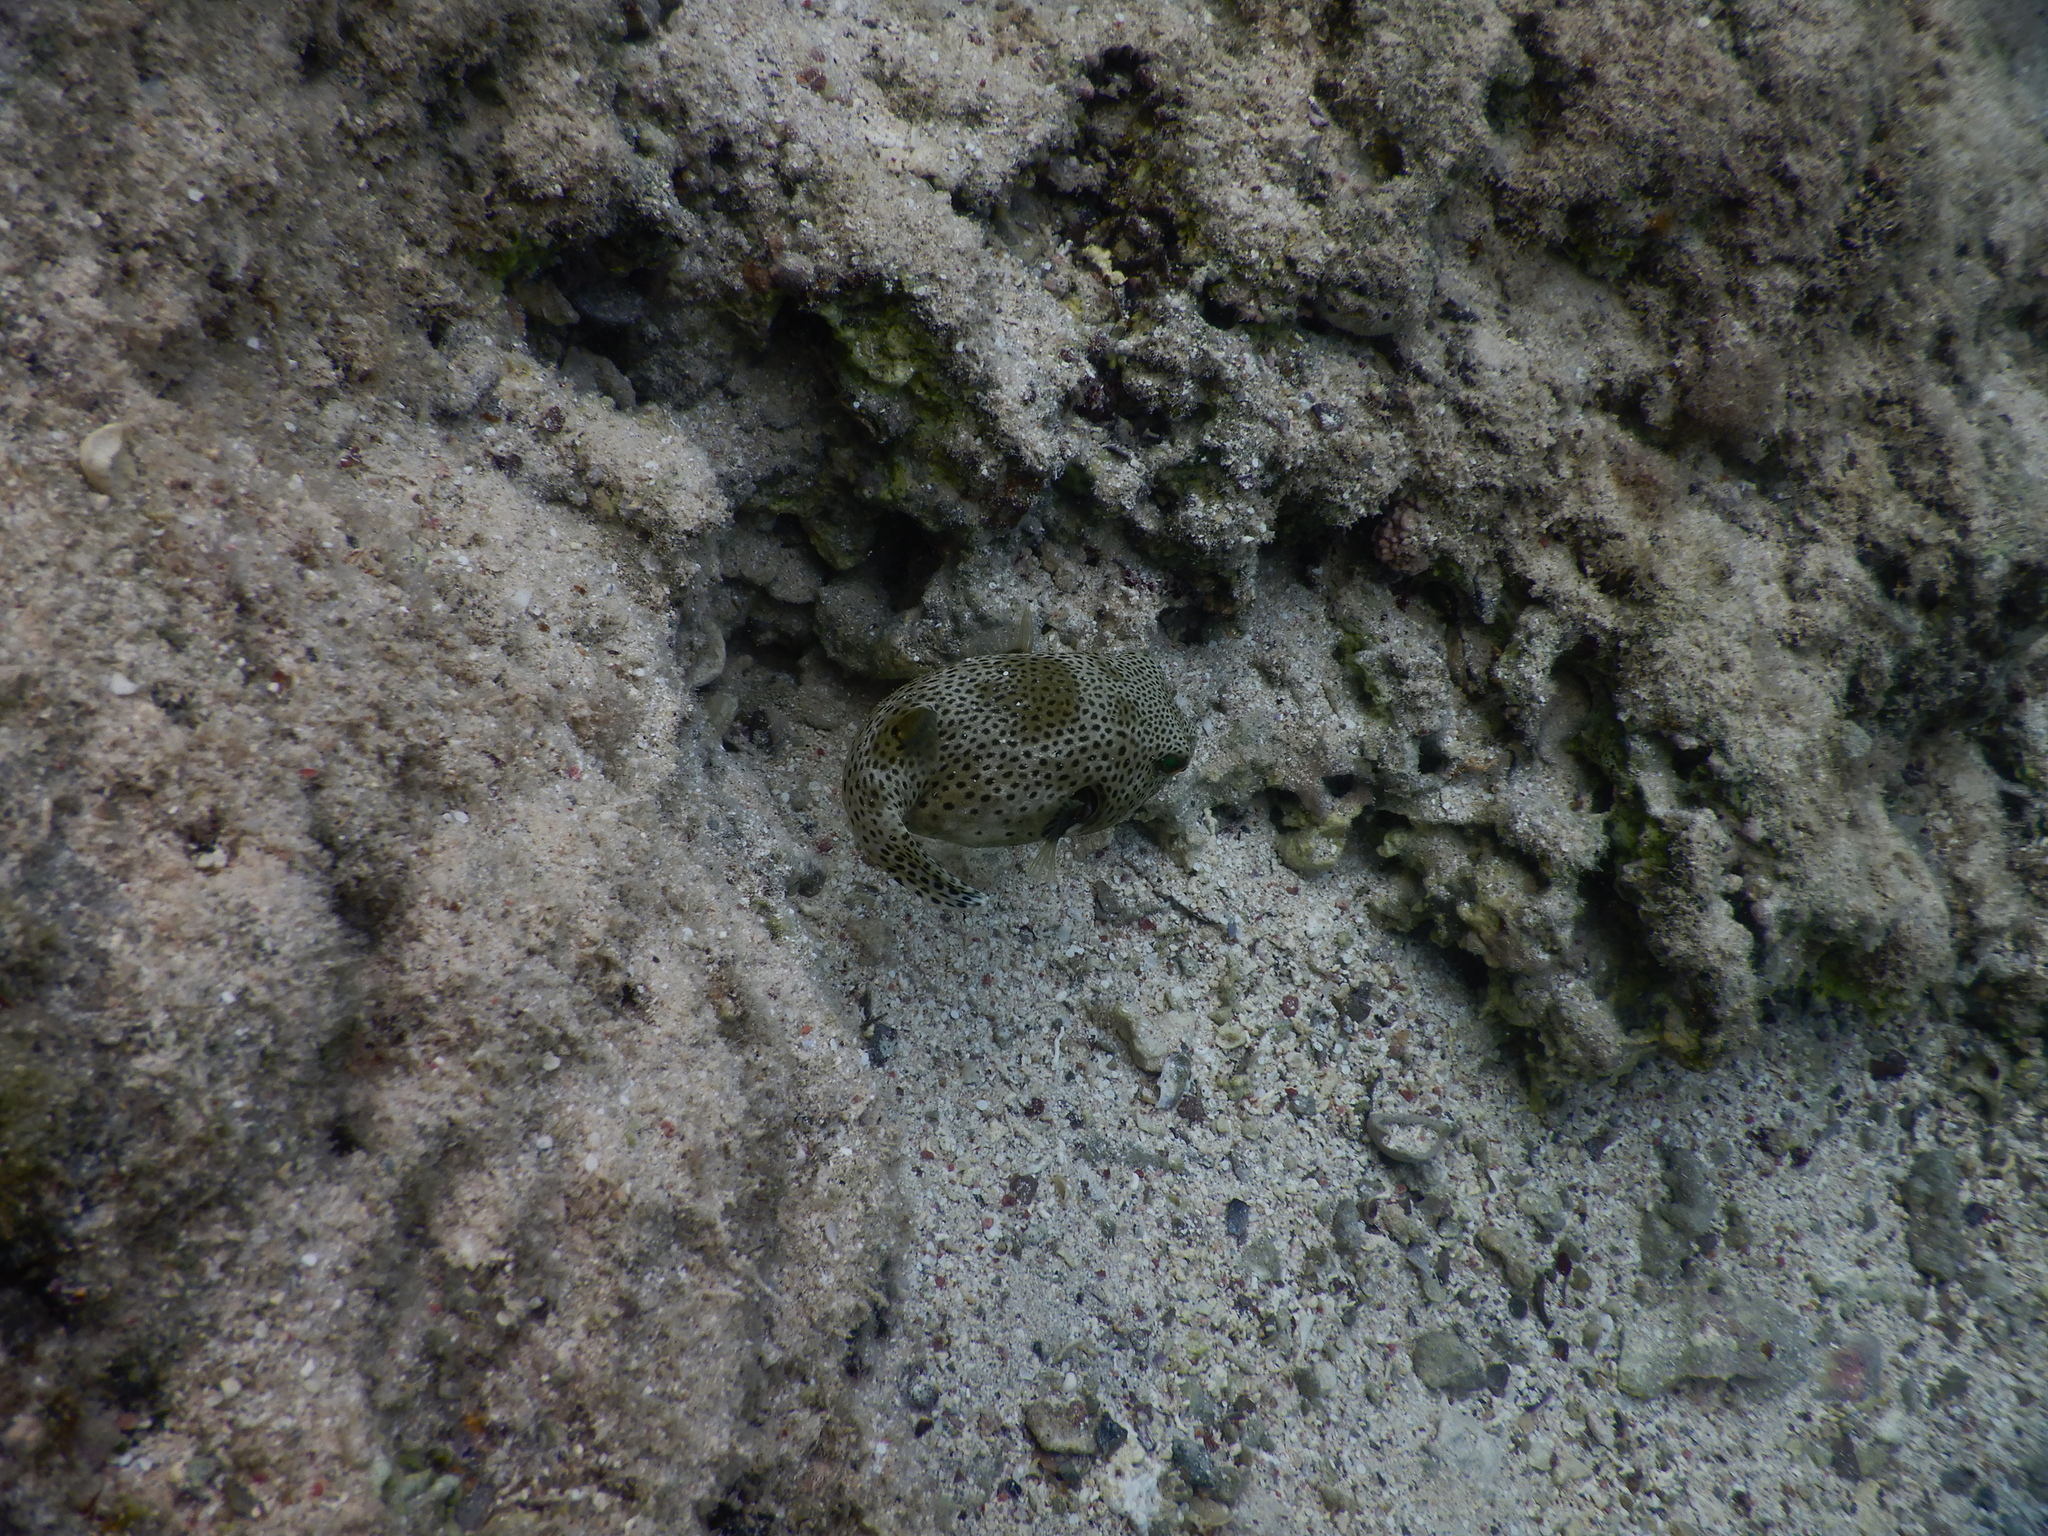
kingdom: Animalia
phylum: Chordata
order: Tetraodontiformes
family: Tetraodontidae
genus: Arothron
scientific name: Arothron stellatus
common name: Star blaasop
